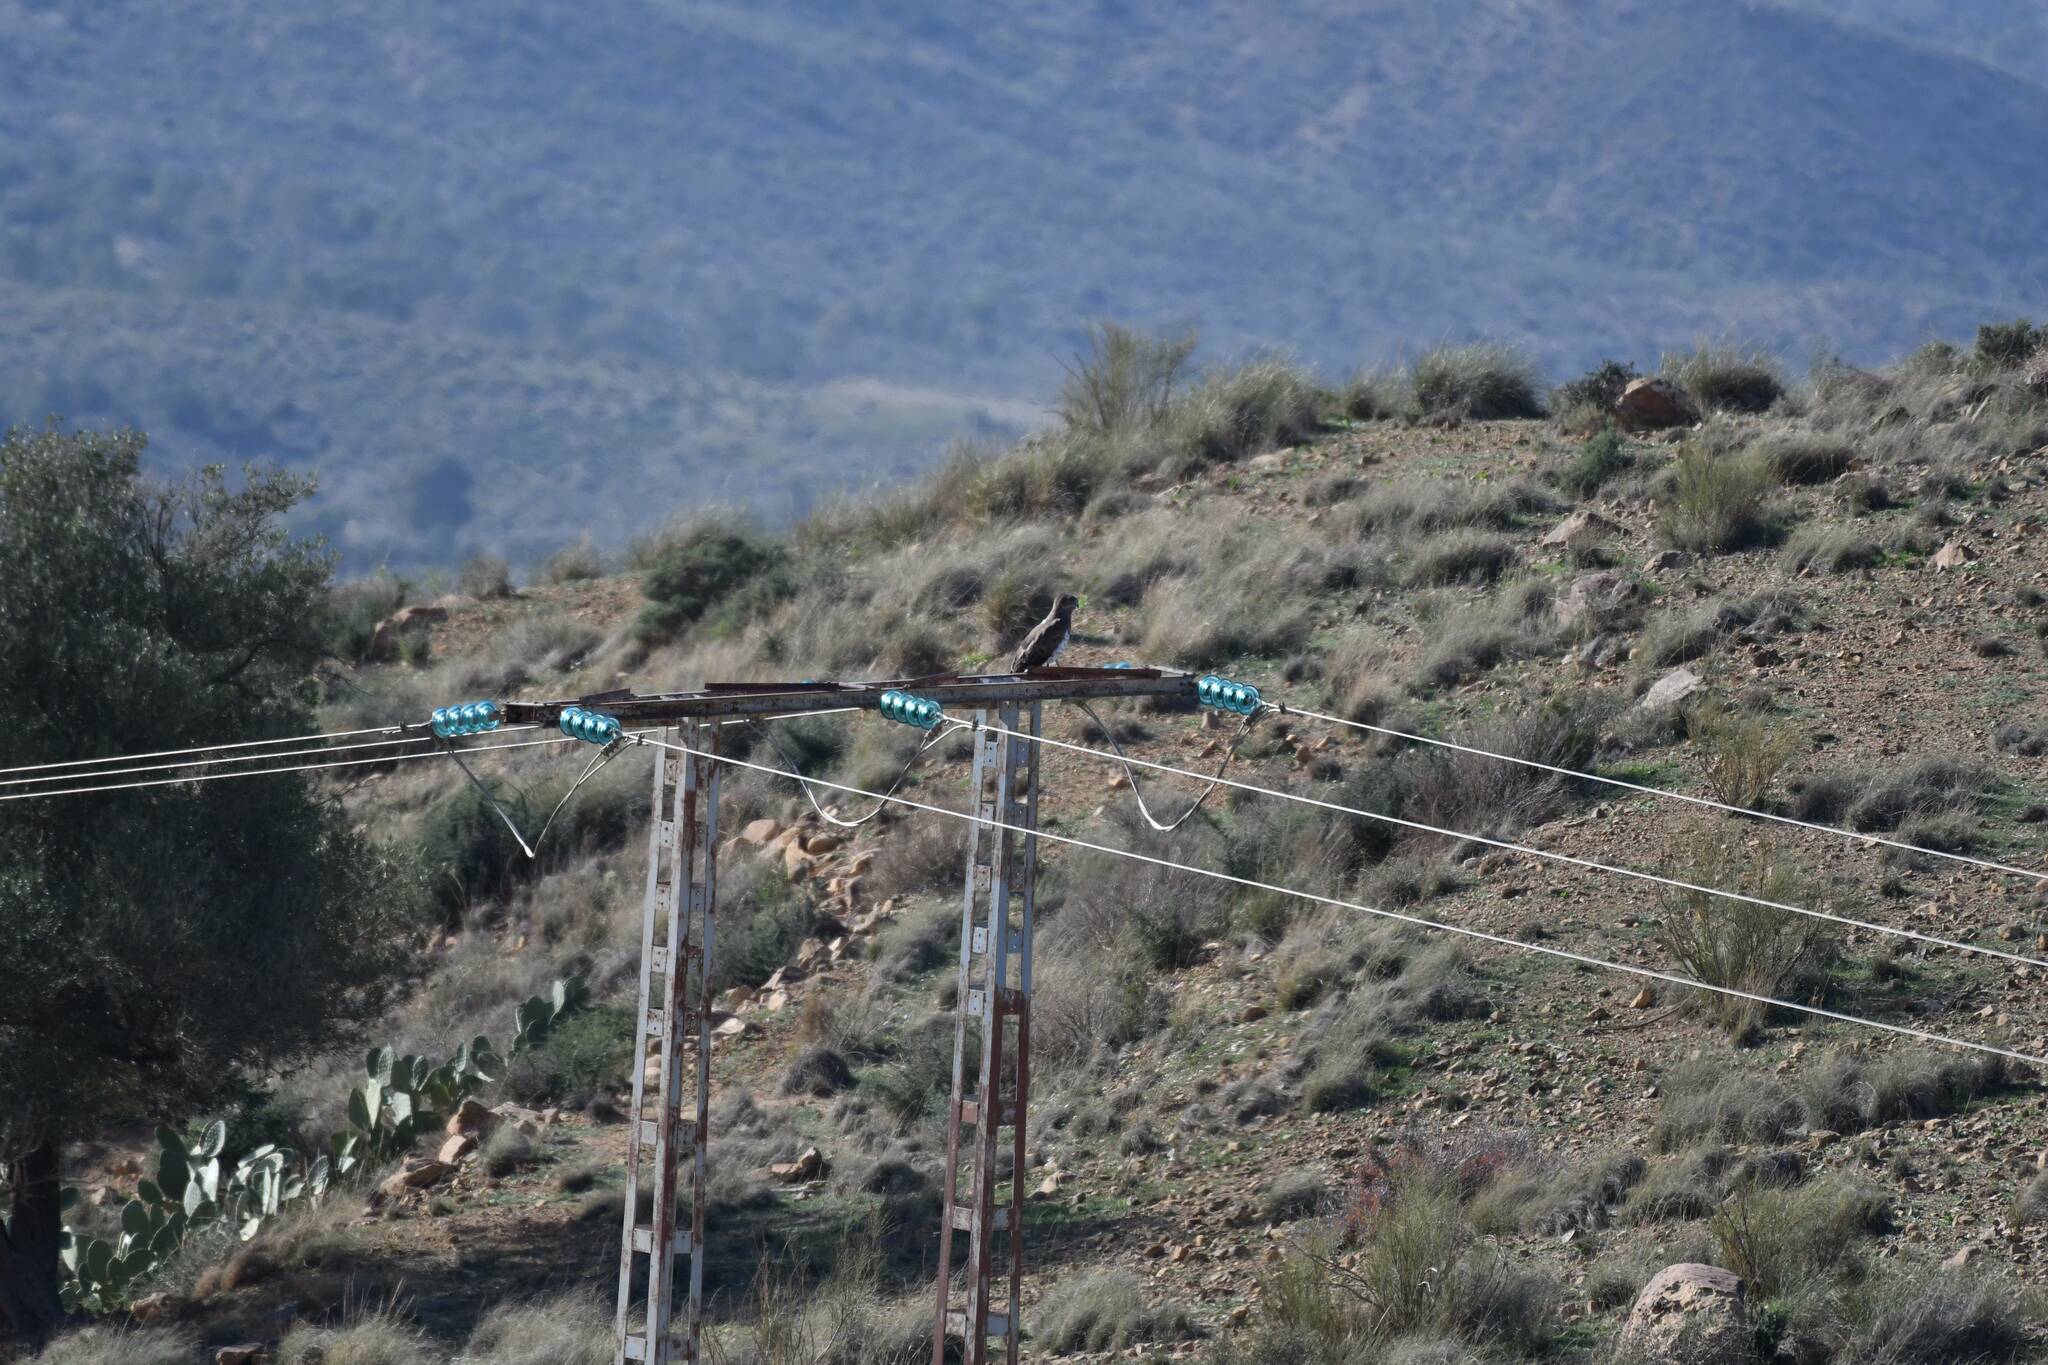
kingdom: Animalia
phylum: Chordata
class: Aves
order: Accipitriformes
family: Accipitridae
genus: Circaetus
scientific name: Circaetus gallicus
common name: Short-toed snake eagle
